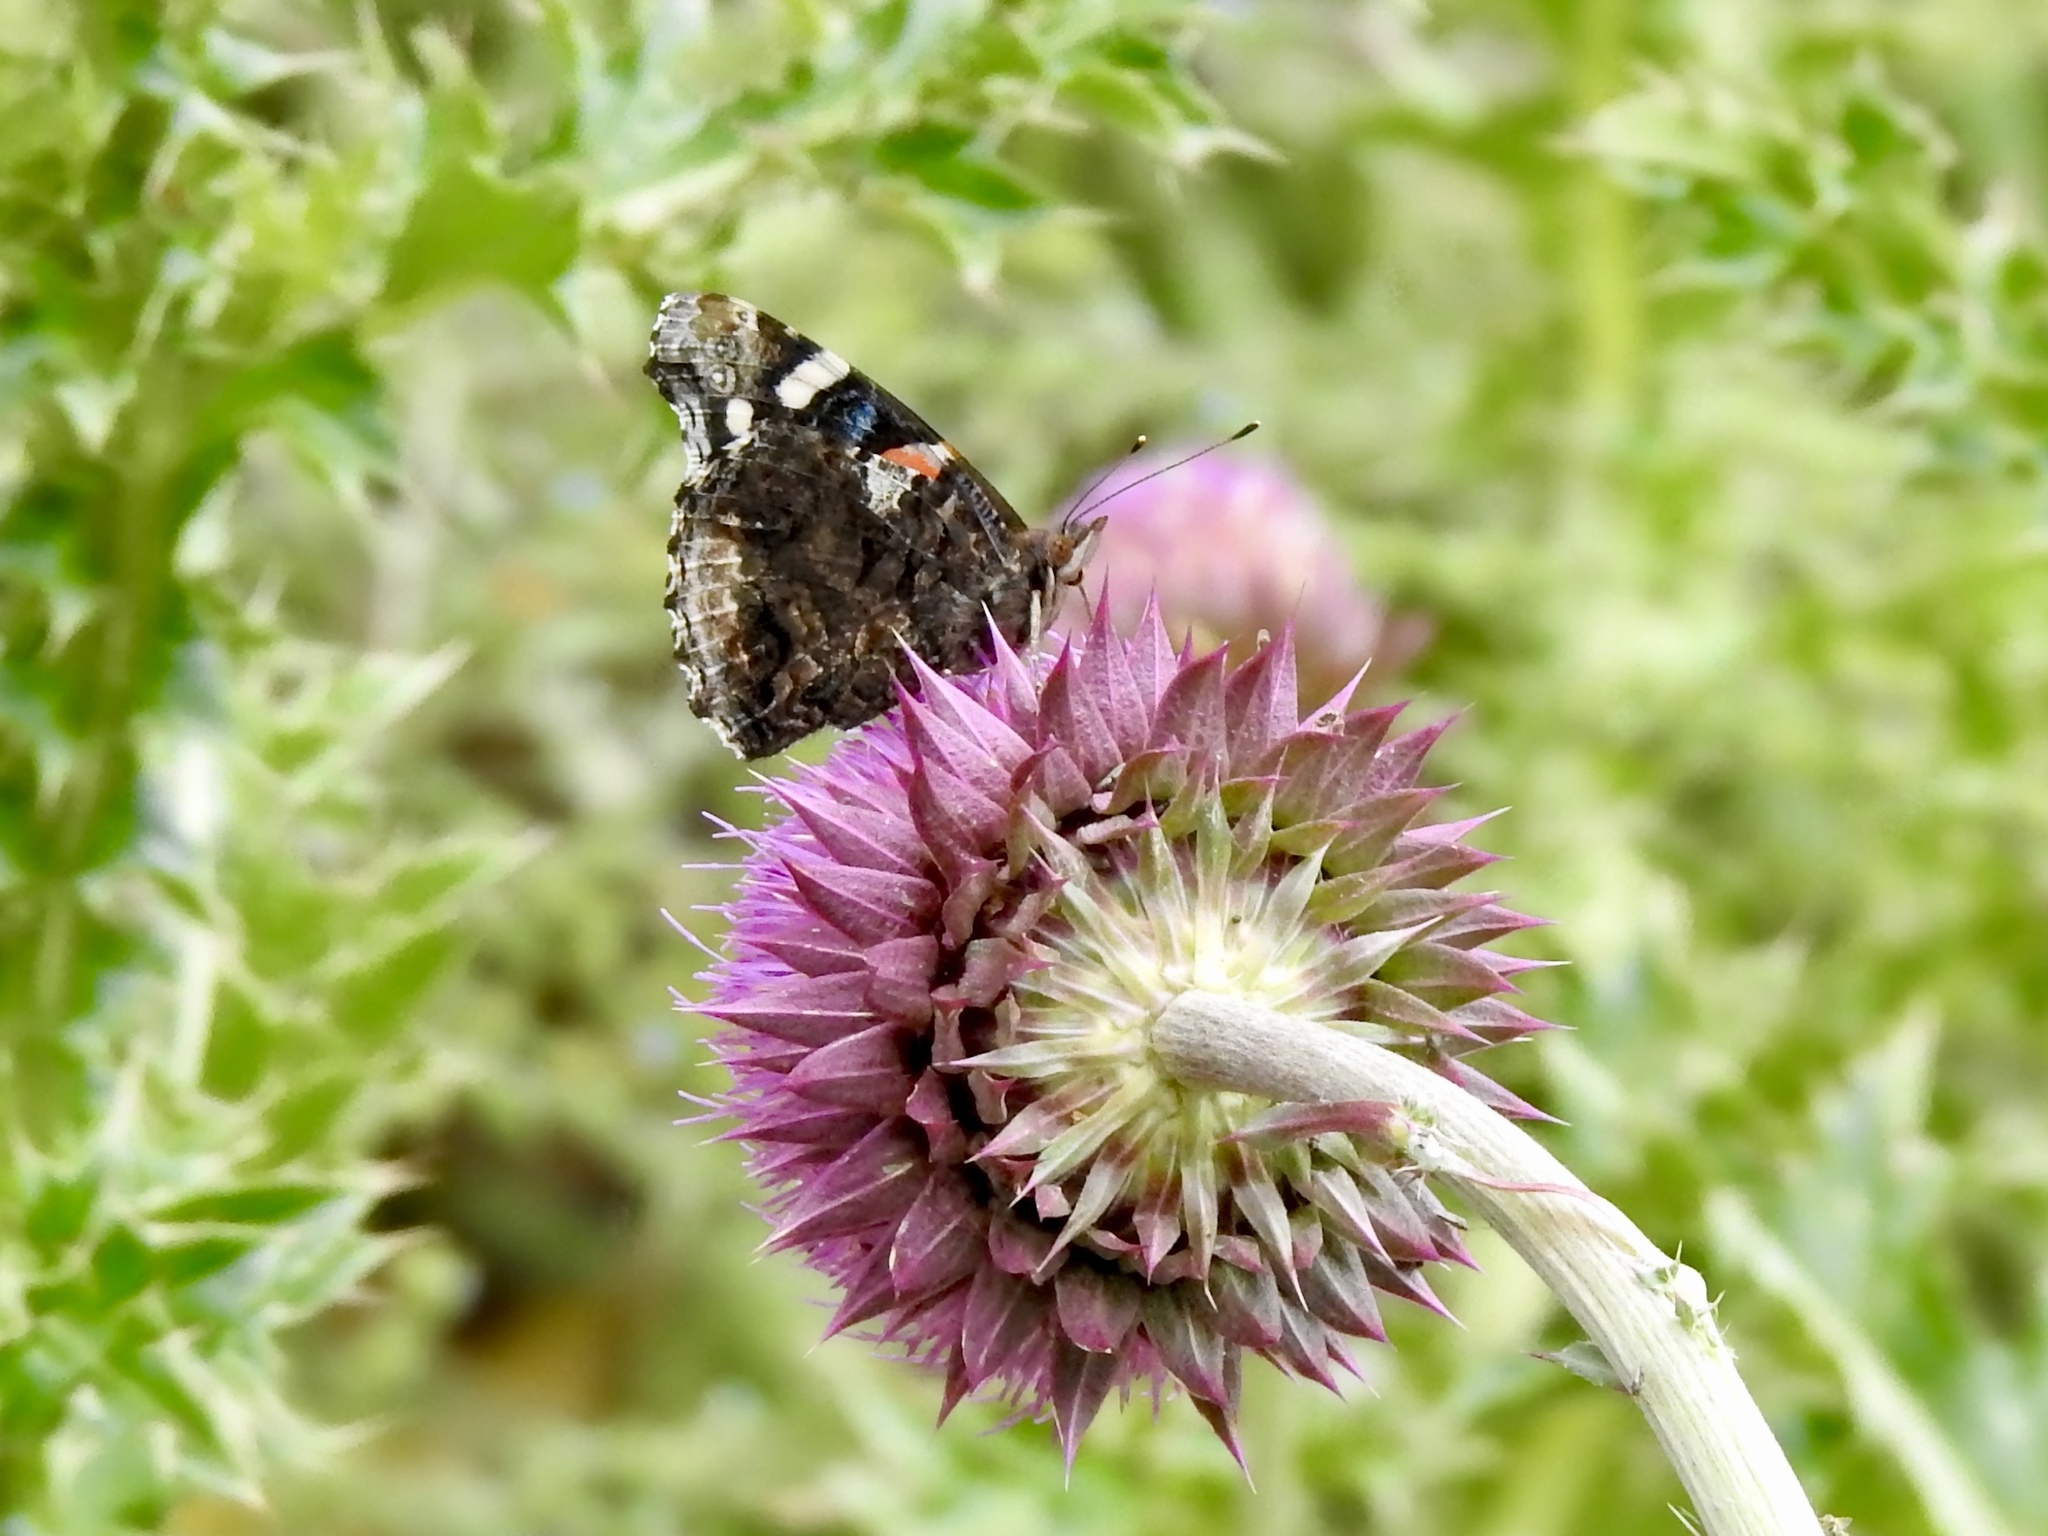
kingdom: Animalia
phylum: Arthropoda
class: Insecta
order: Lepidoptera
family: Nymphalidae
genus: Vanessa
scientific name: Vanessa atalanta
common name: Red admiral
